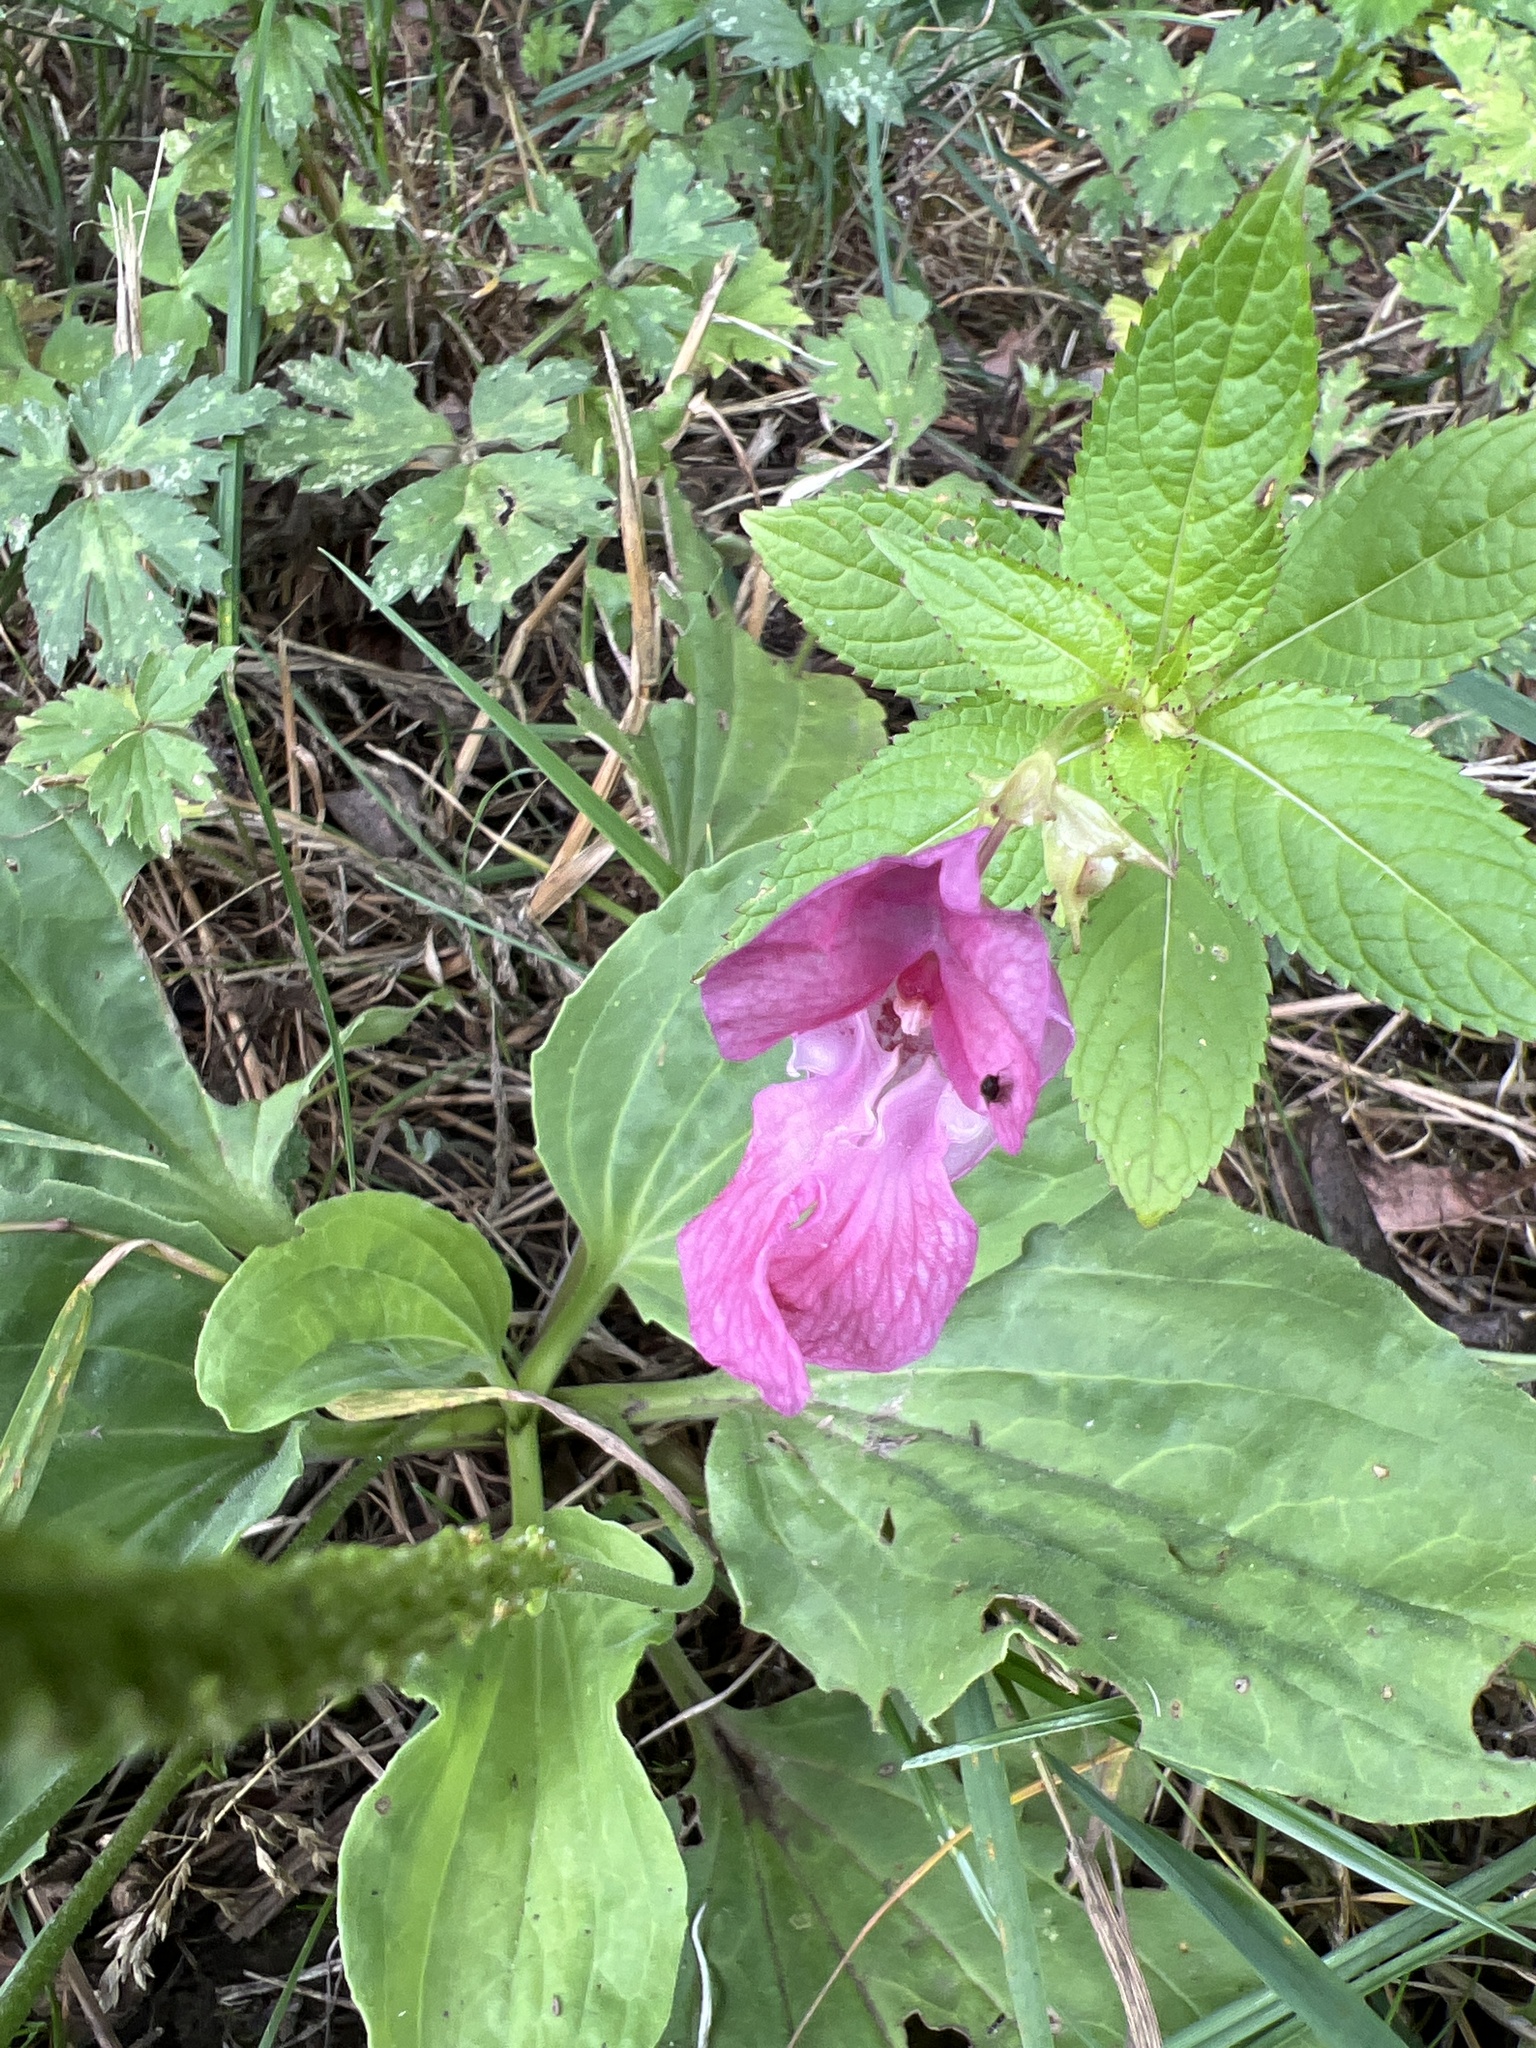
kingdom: Plantae
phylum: Tracheophyta
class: Magnoliopsida
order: Ericales
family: Balsaminaceae
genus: Impatiens
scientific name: Impatiens glandulifera
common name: Himalayan balsam
